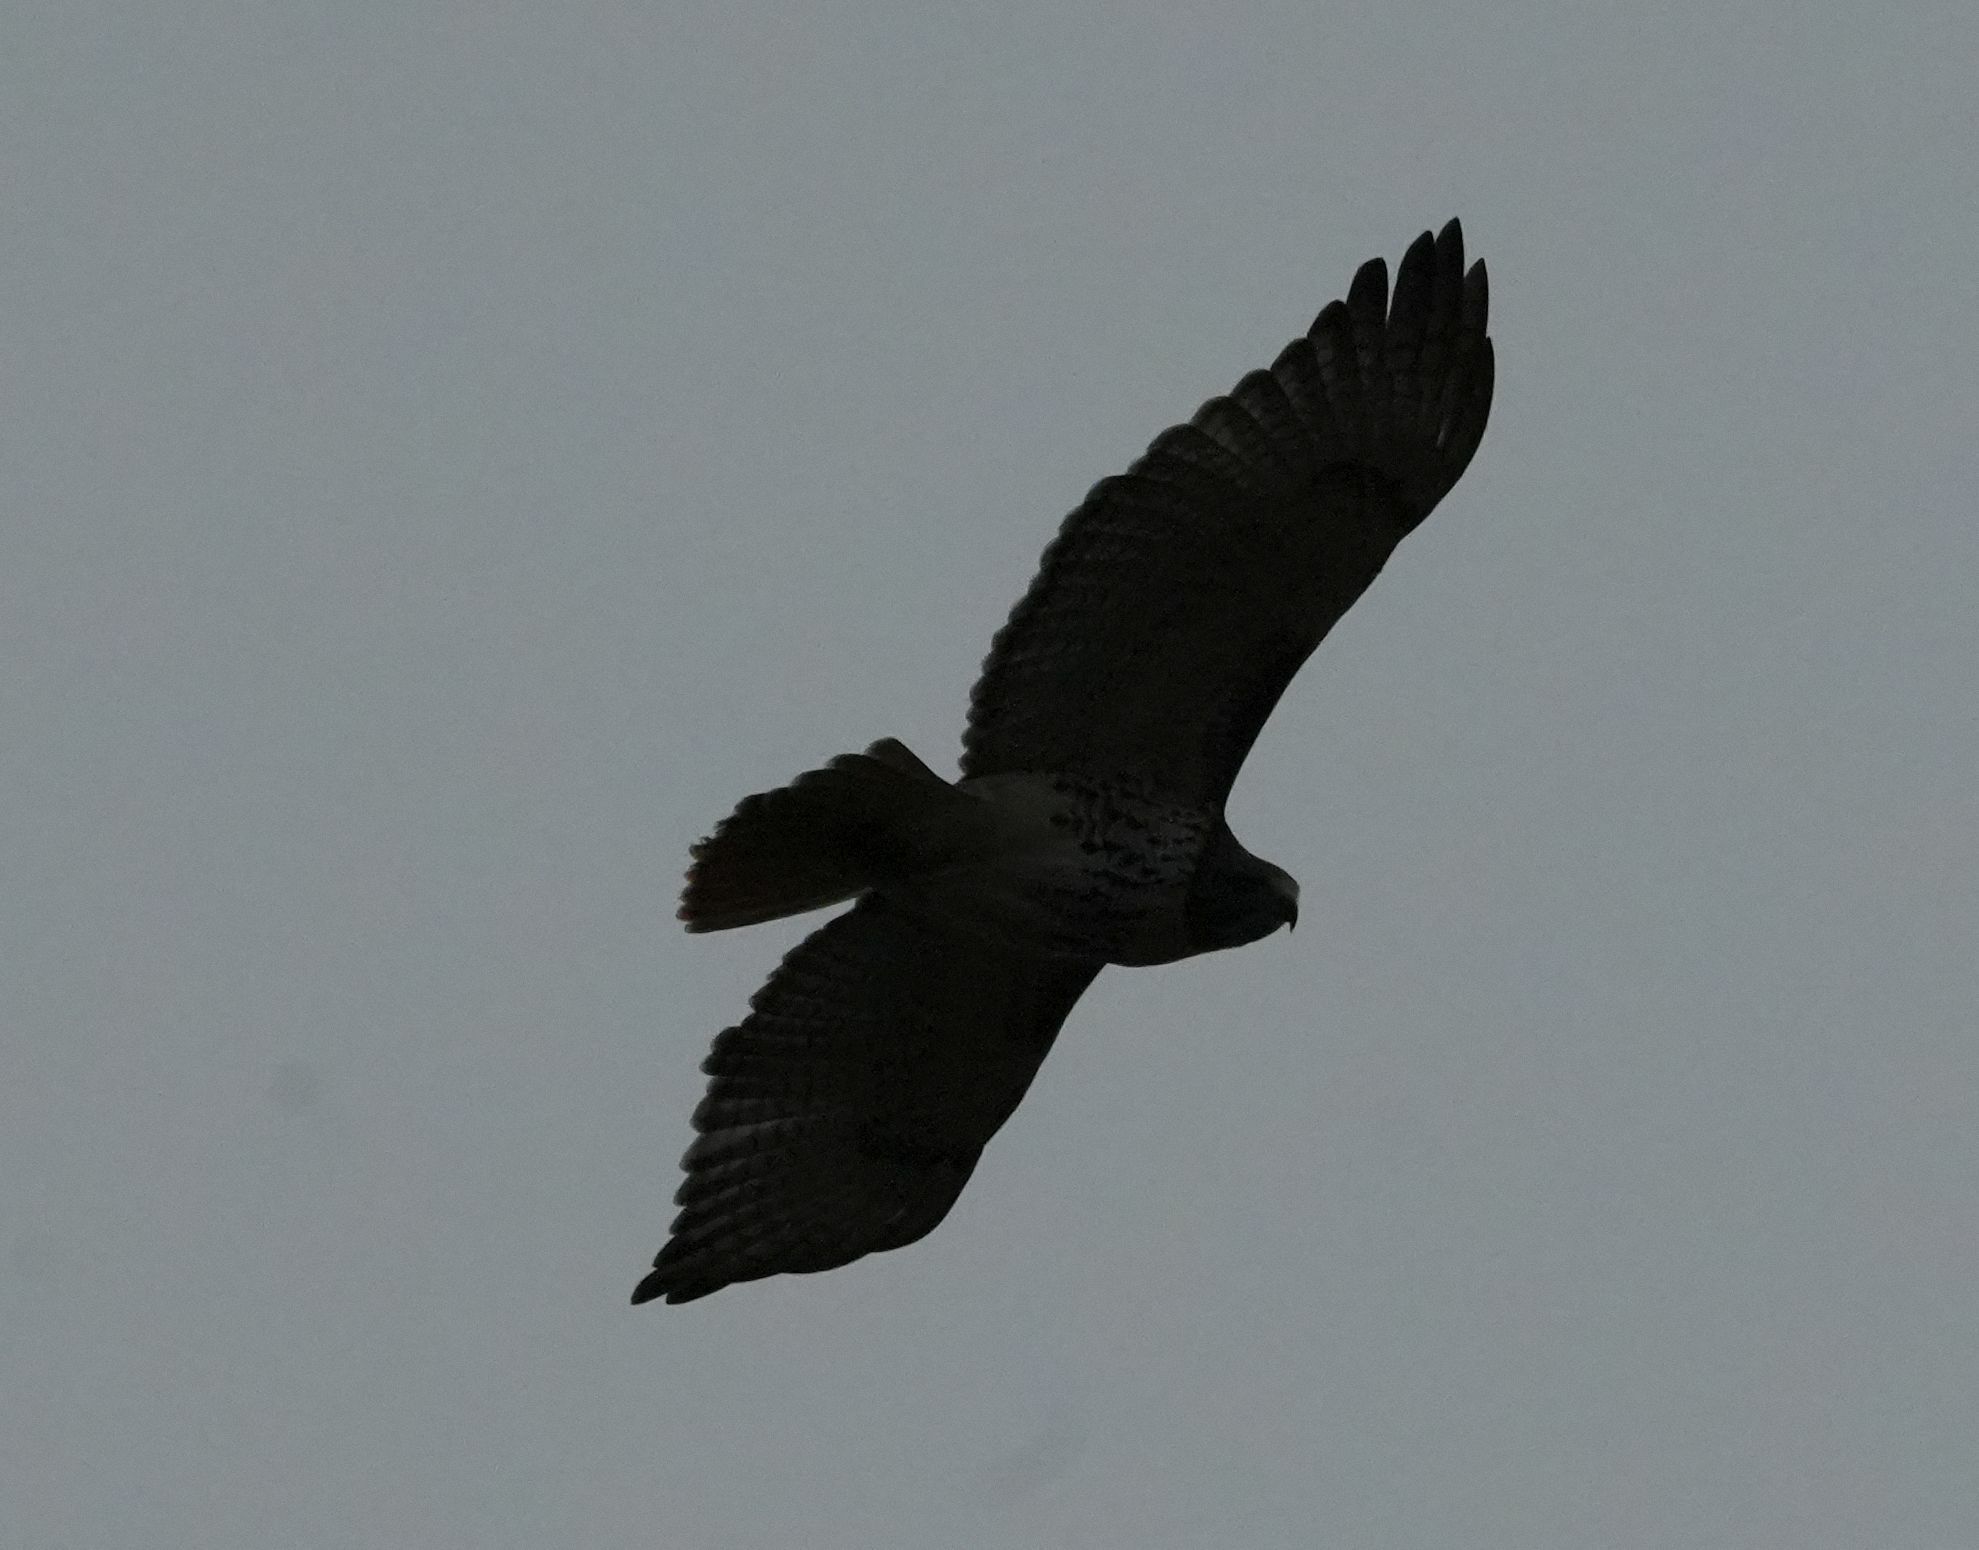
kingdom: Animalia
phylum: Chordata
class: Aves
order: Accipitriformes
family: Accipitridae
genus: Buteo
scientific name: Buteo jamaicensis
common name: Red-tailed hawk
